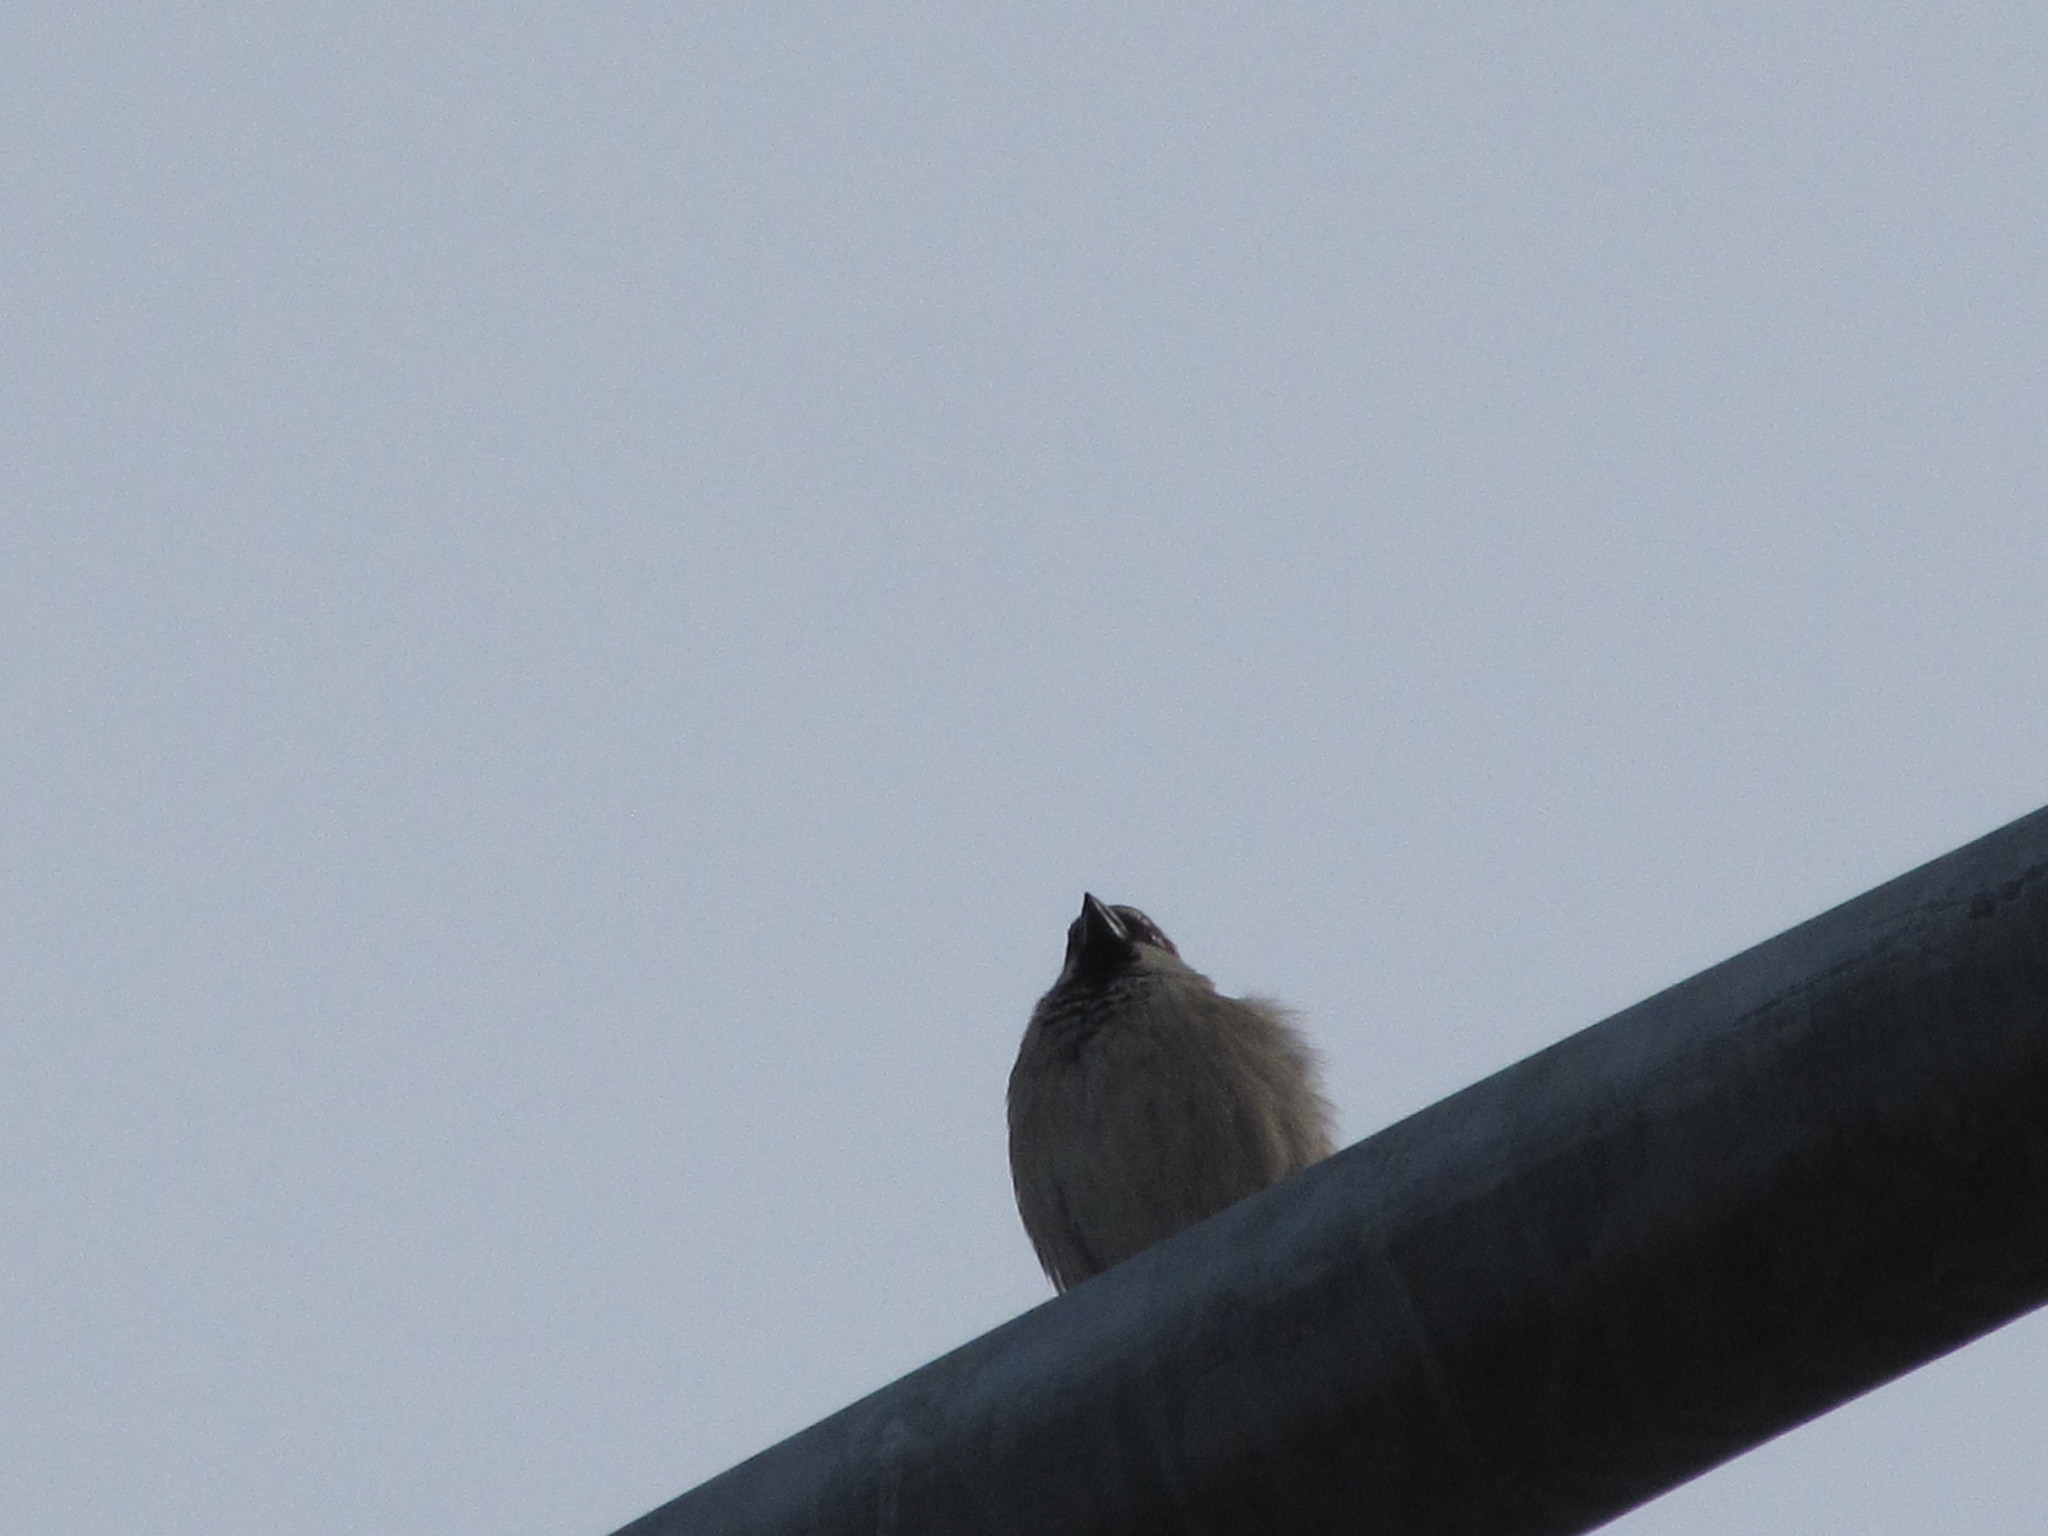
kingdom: Animalia
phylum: Chordata
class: Aves
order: Passeriformes
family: Passeridae
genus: Passer
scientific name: Passer domesticus
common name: House sparrow
